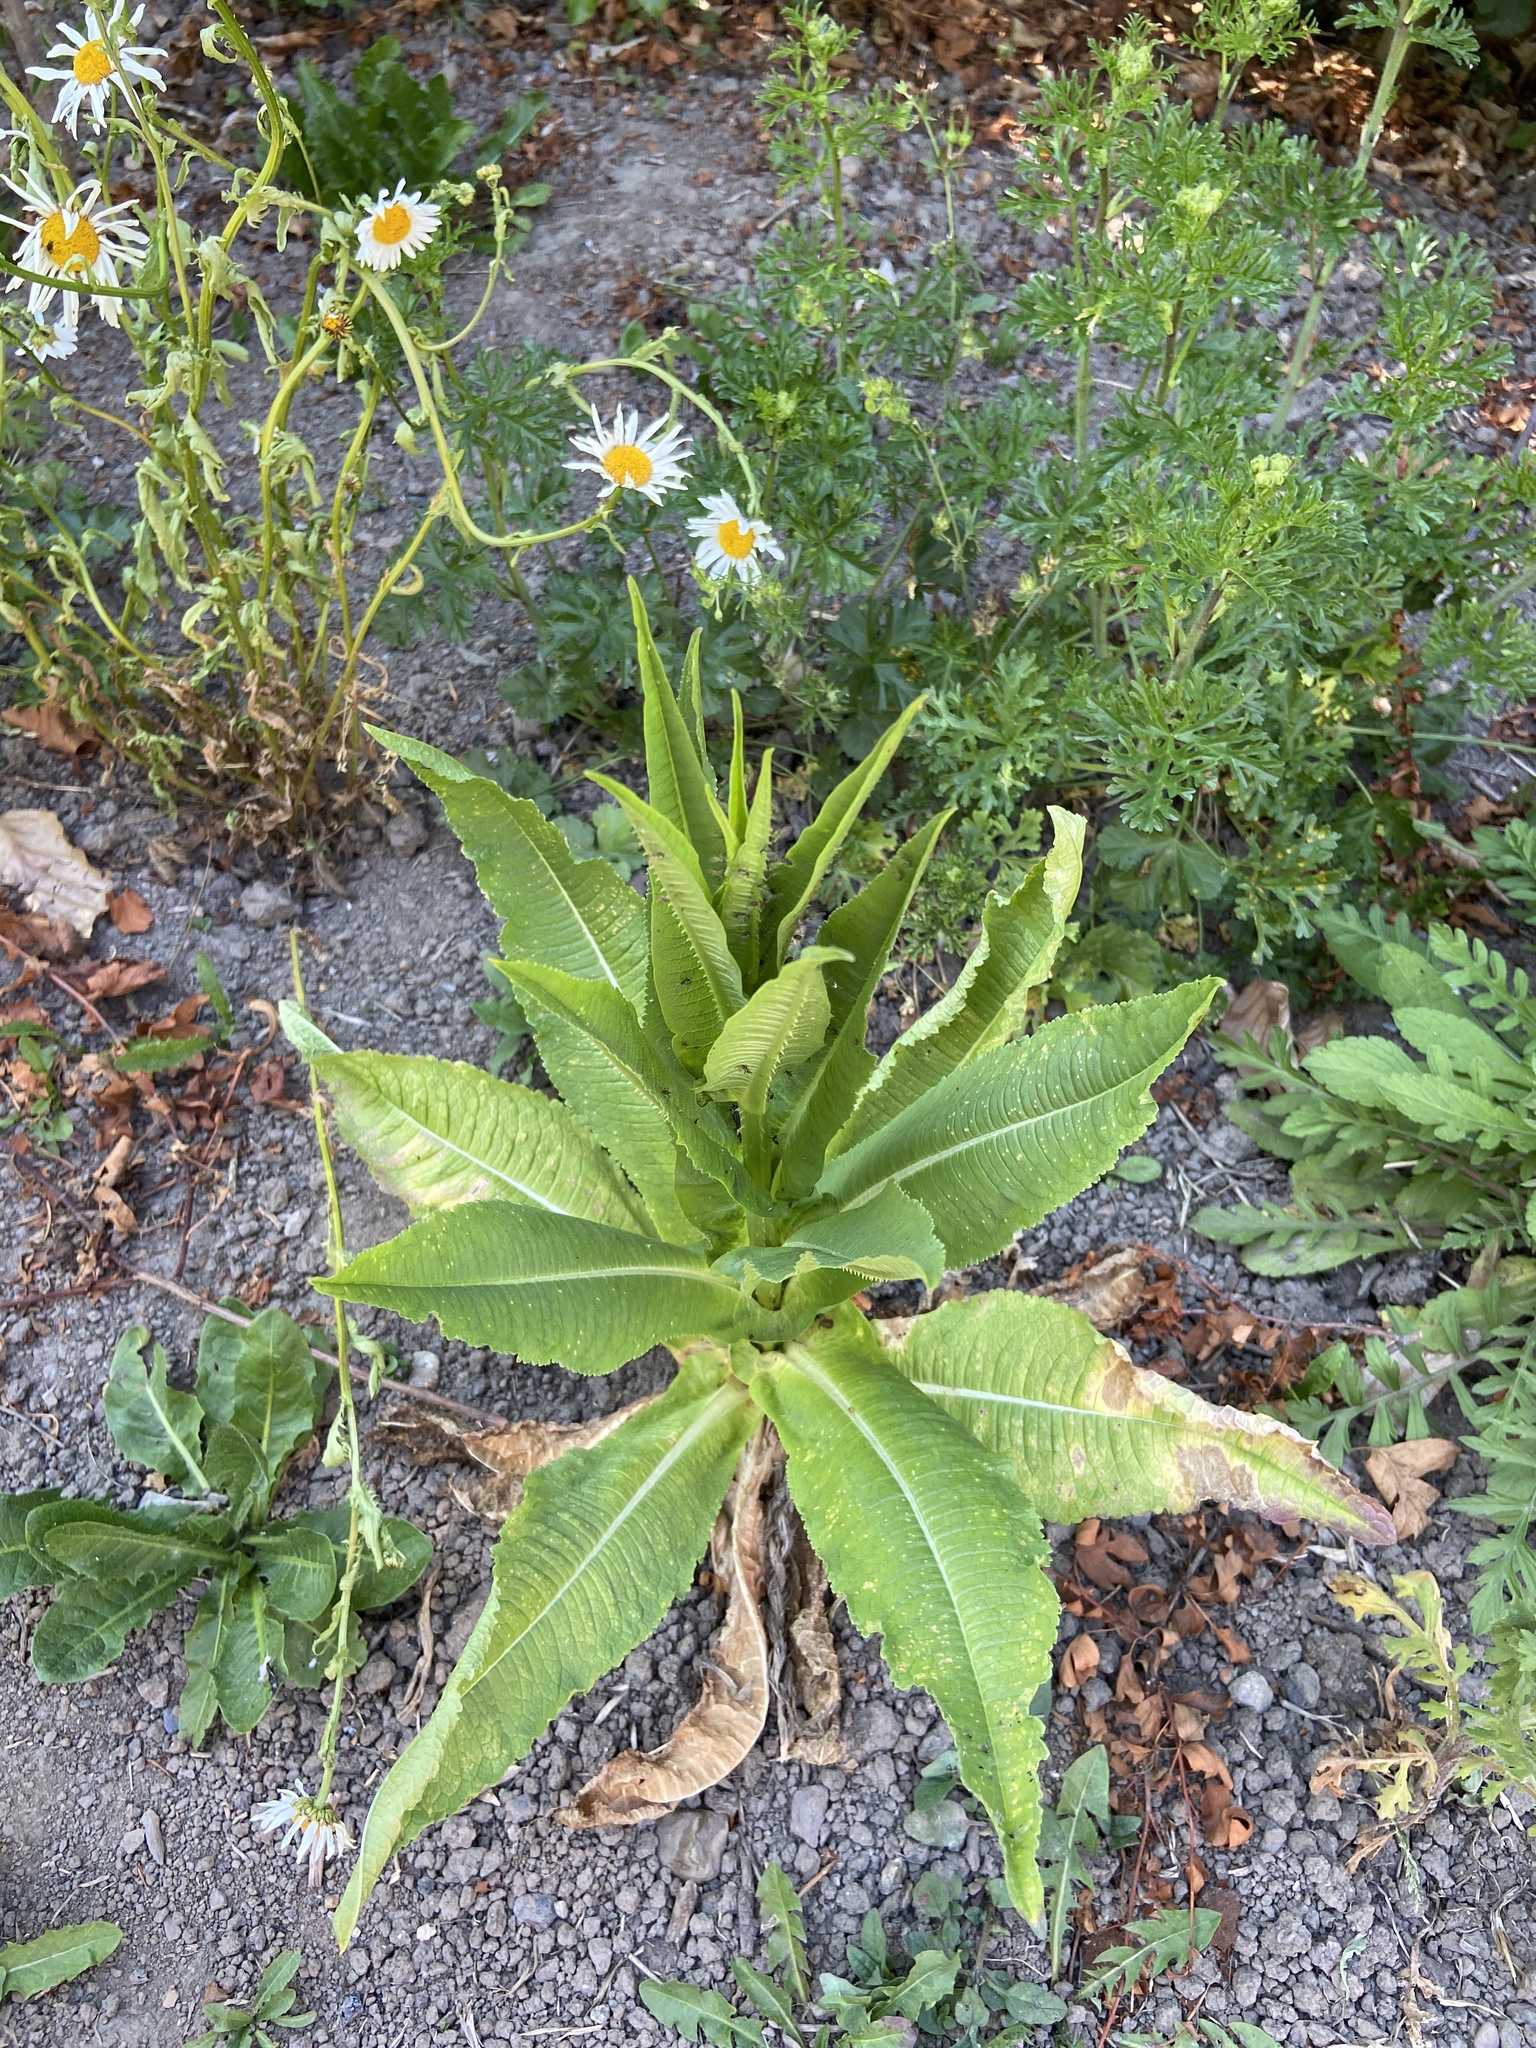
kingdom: Plantae
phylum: Tracheophyta
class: Magnoliopsida
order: Dipsacales
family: Caprifoliaceae
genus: Dipsacus
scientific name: Dipsacus fullonum
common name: Teasel
